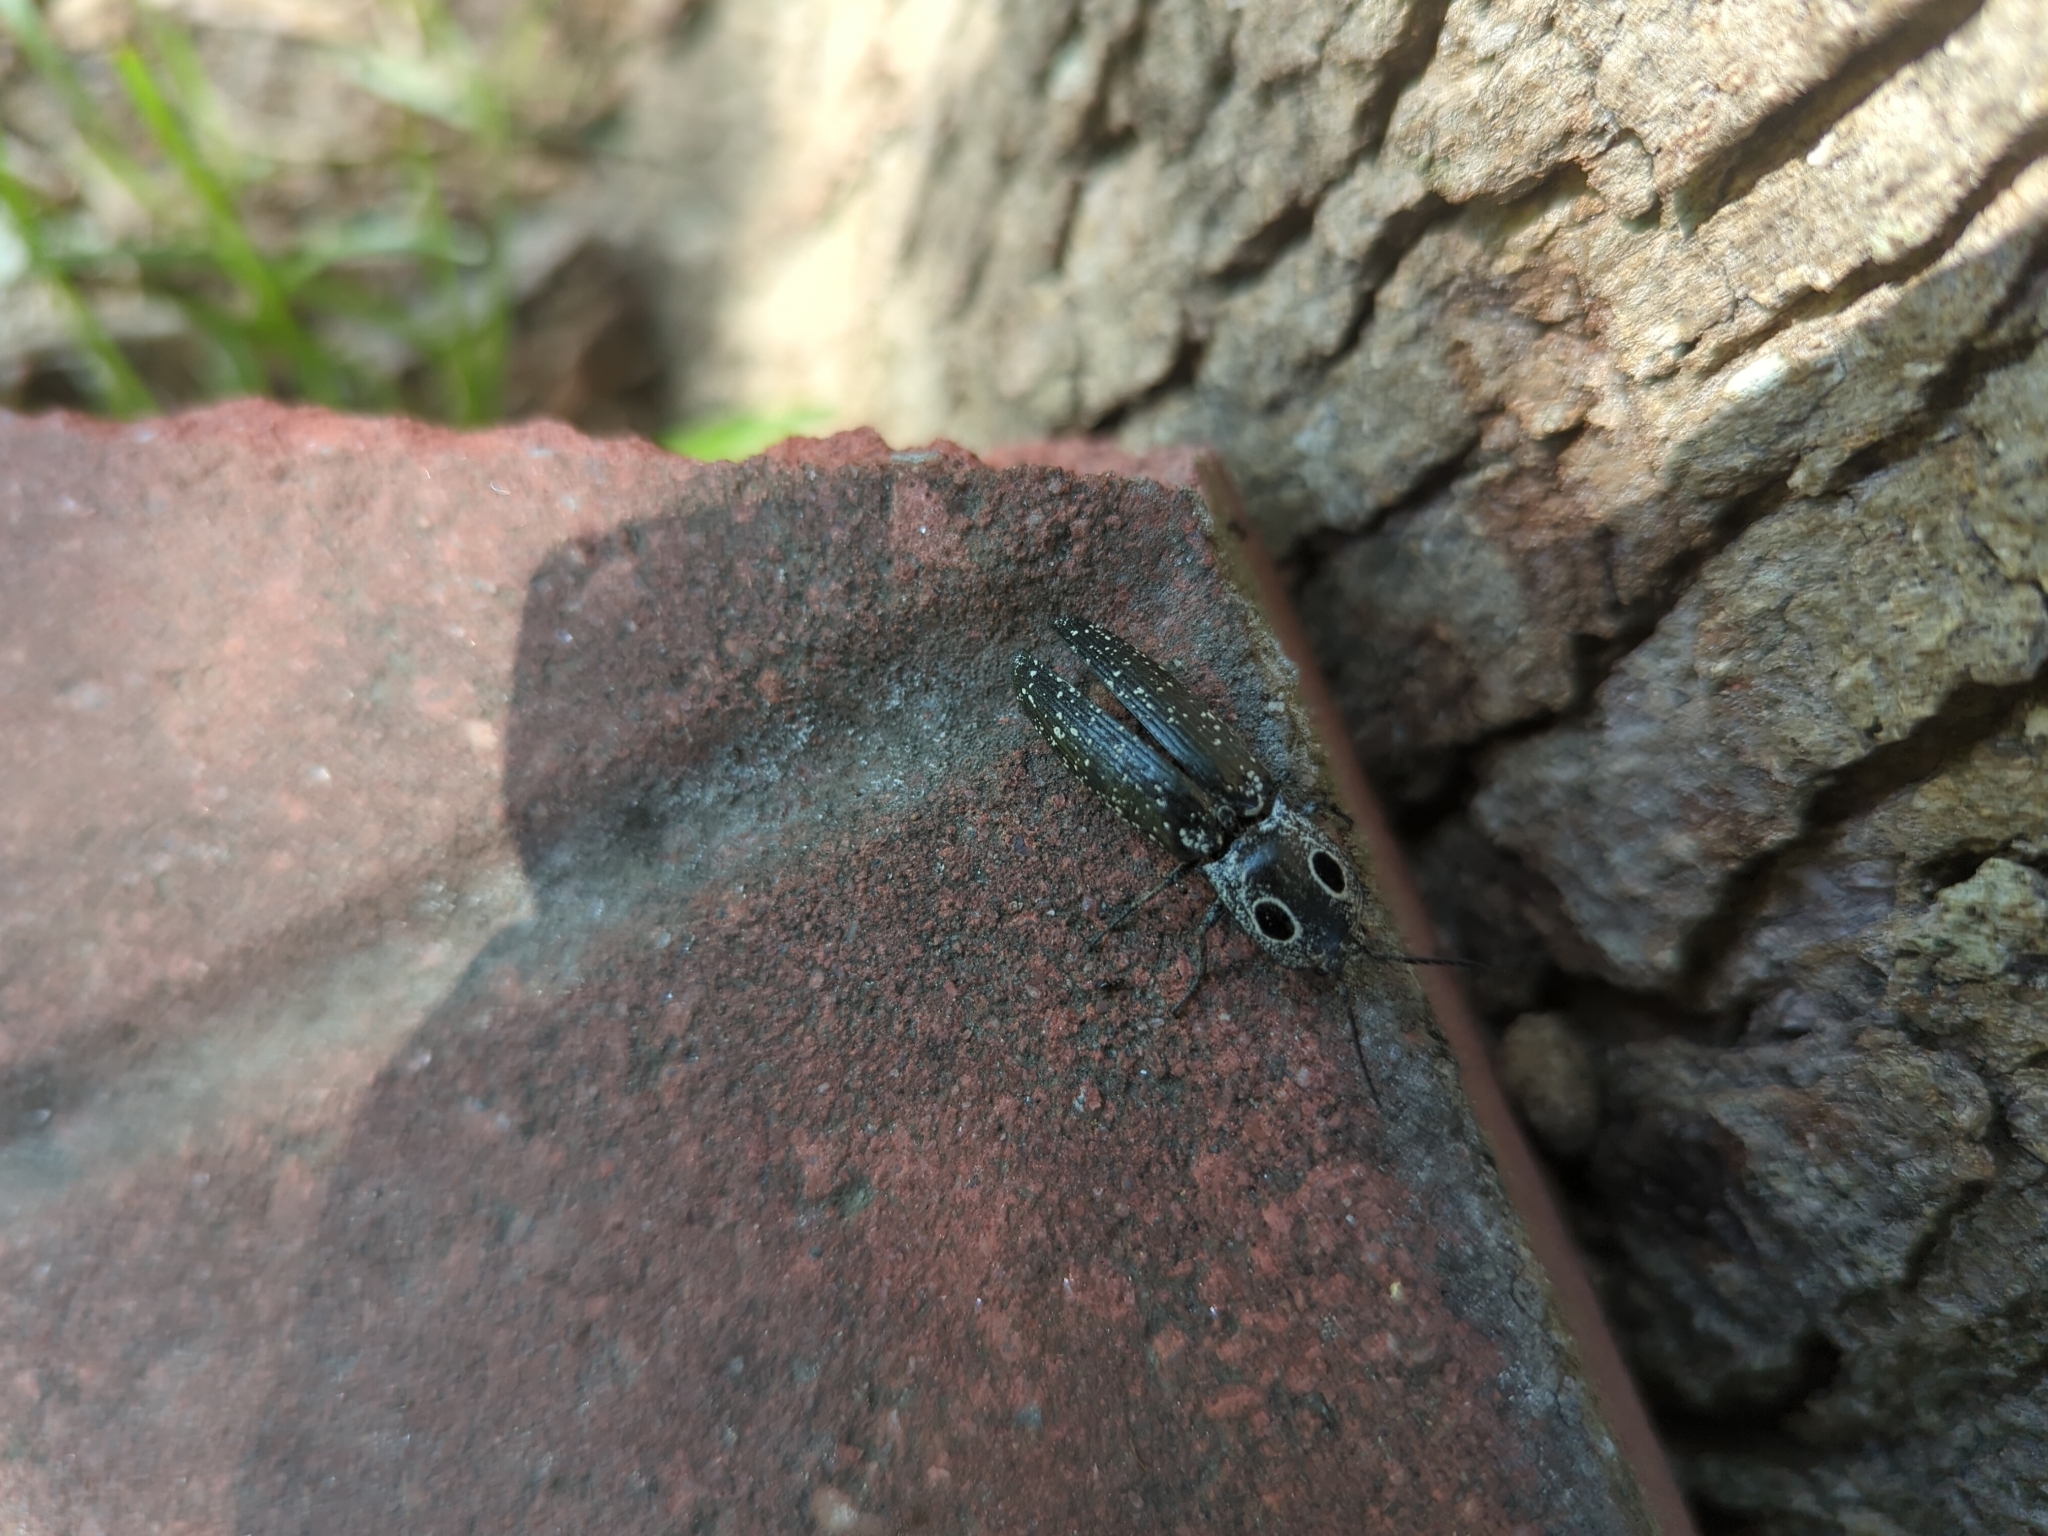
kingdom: Animalia
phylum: Arthropoda
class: Insecta
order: Coleoptera
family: Elateridae
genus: Alaus
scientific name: Alaus oculatus
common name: Eastern eyed click beetle
